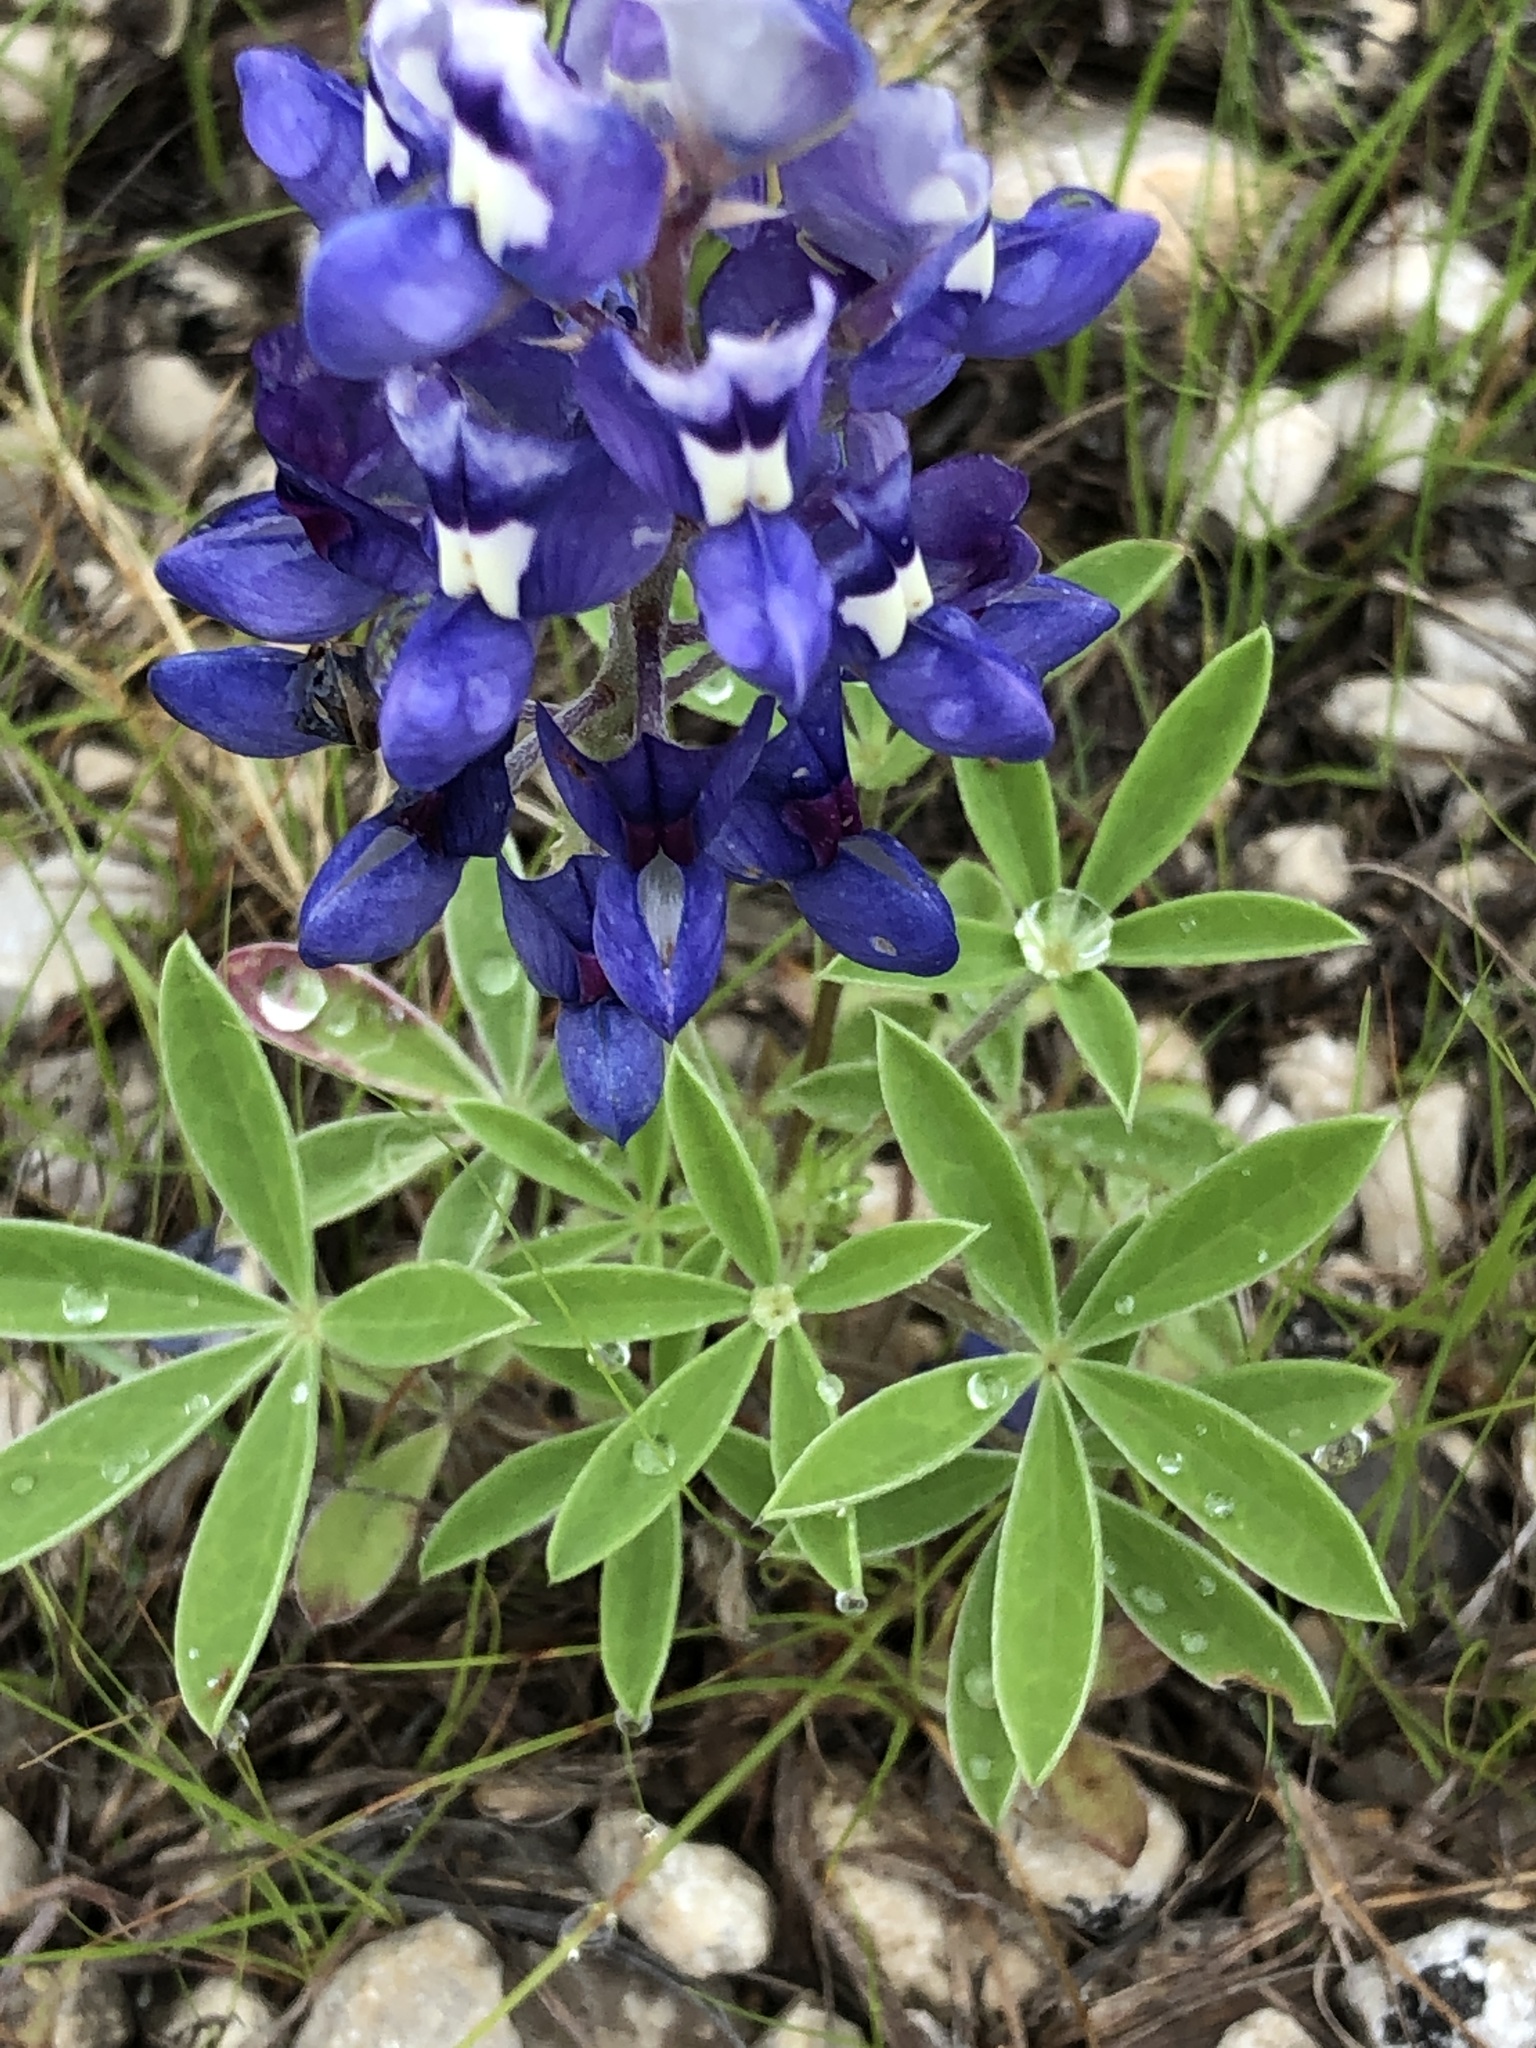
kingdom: Plantae
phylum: Tracheophyta
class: Magnoliopsida
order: Fabales
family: Fabaceae
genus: Lupinus
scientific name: Lupinus texensis
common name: Texas bluebonnet
